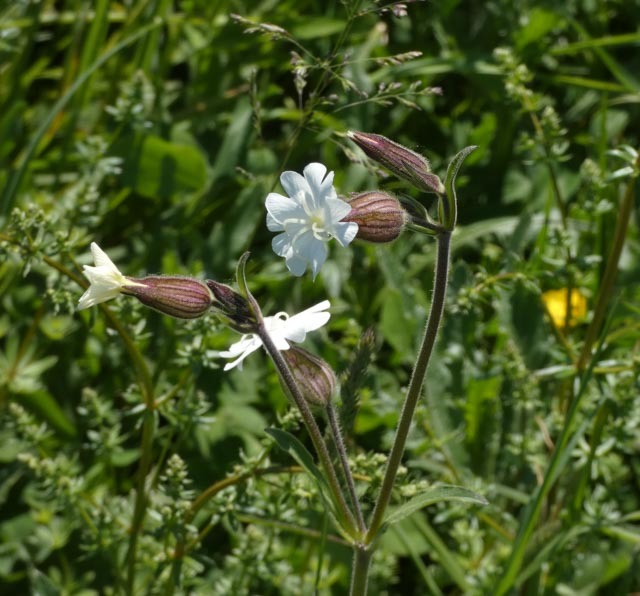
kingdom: Plantae
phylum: Tracheophyta
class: Magnoliopsida
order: Caryophyllales
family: Caryophyllaceae
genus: Silene
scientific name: Silene latifolia
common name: White campion
